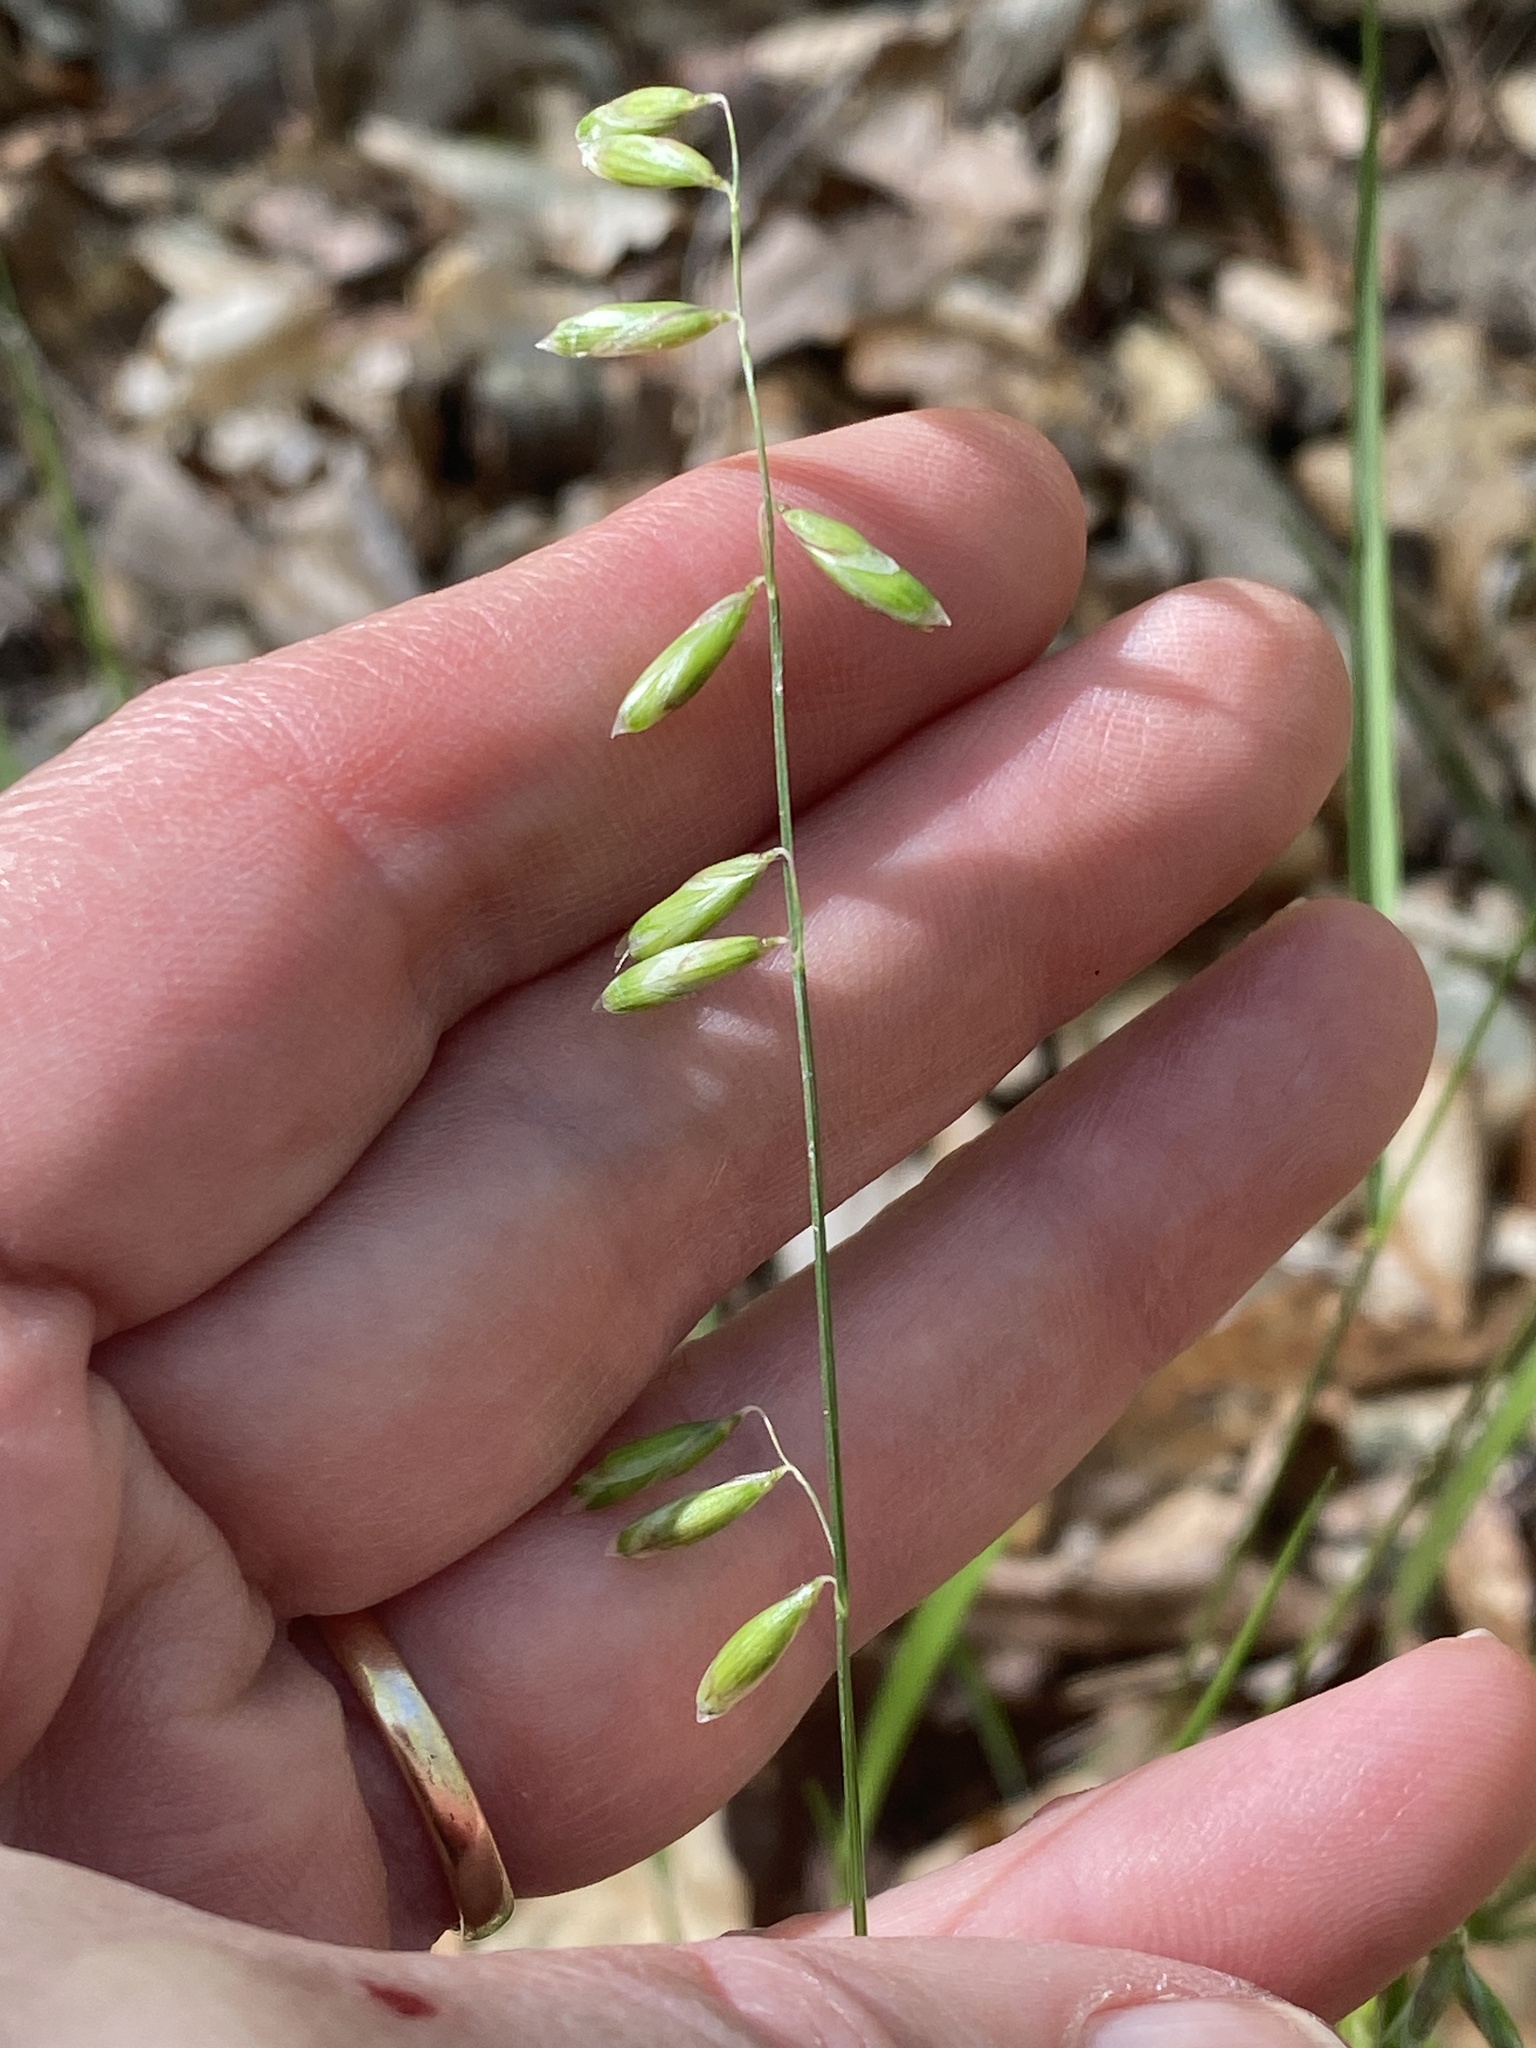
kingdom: Plantae
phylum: Tracheophyta
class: Liliopsida
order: Poales
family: Poaceae
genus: Melica
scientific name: Melica mutica
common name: Two-flower melic
